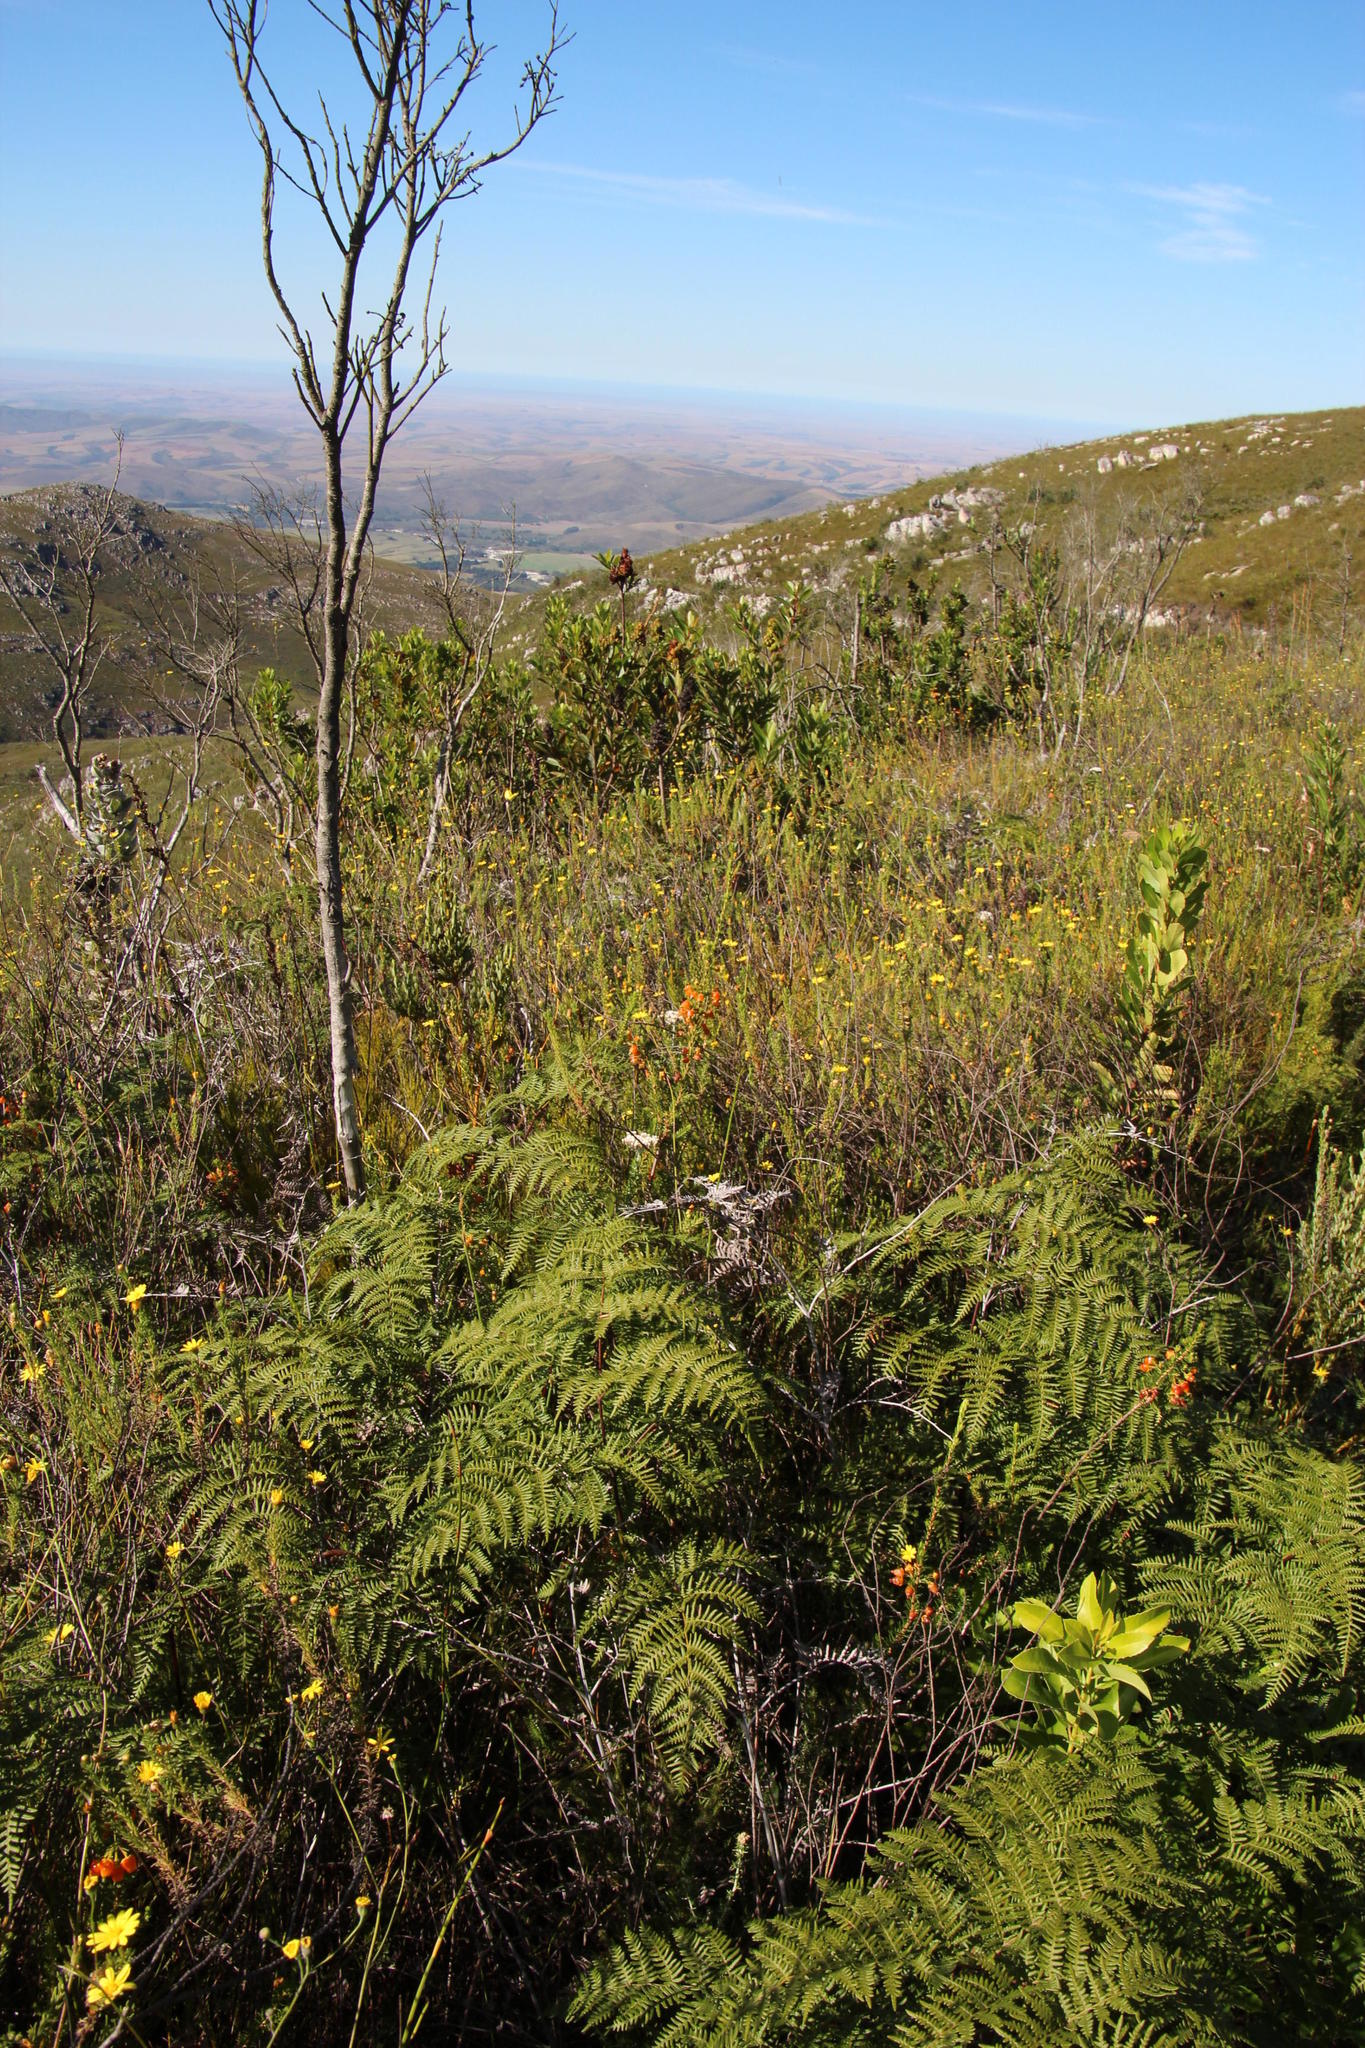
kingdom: Plantae
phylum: Tracheophyta
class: Polypodiopsida
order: Polypodiales
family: Dennstaedtiaceae
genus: Pteridium
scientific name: Pteridium aquilinum
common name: Bracken
